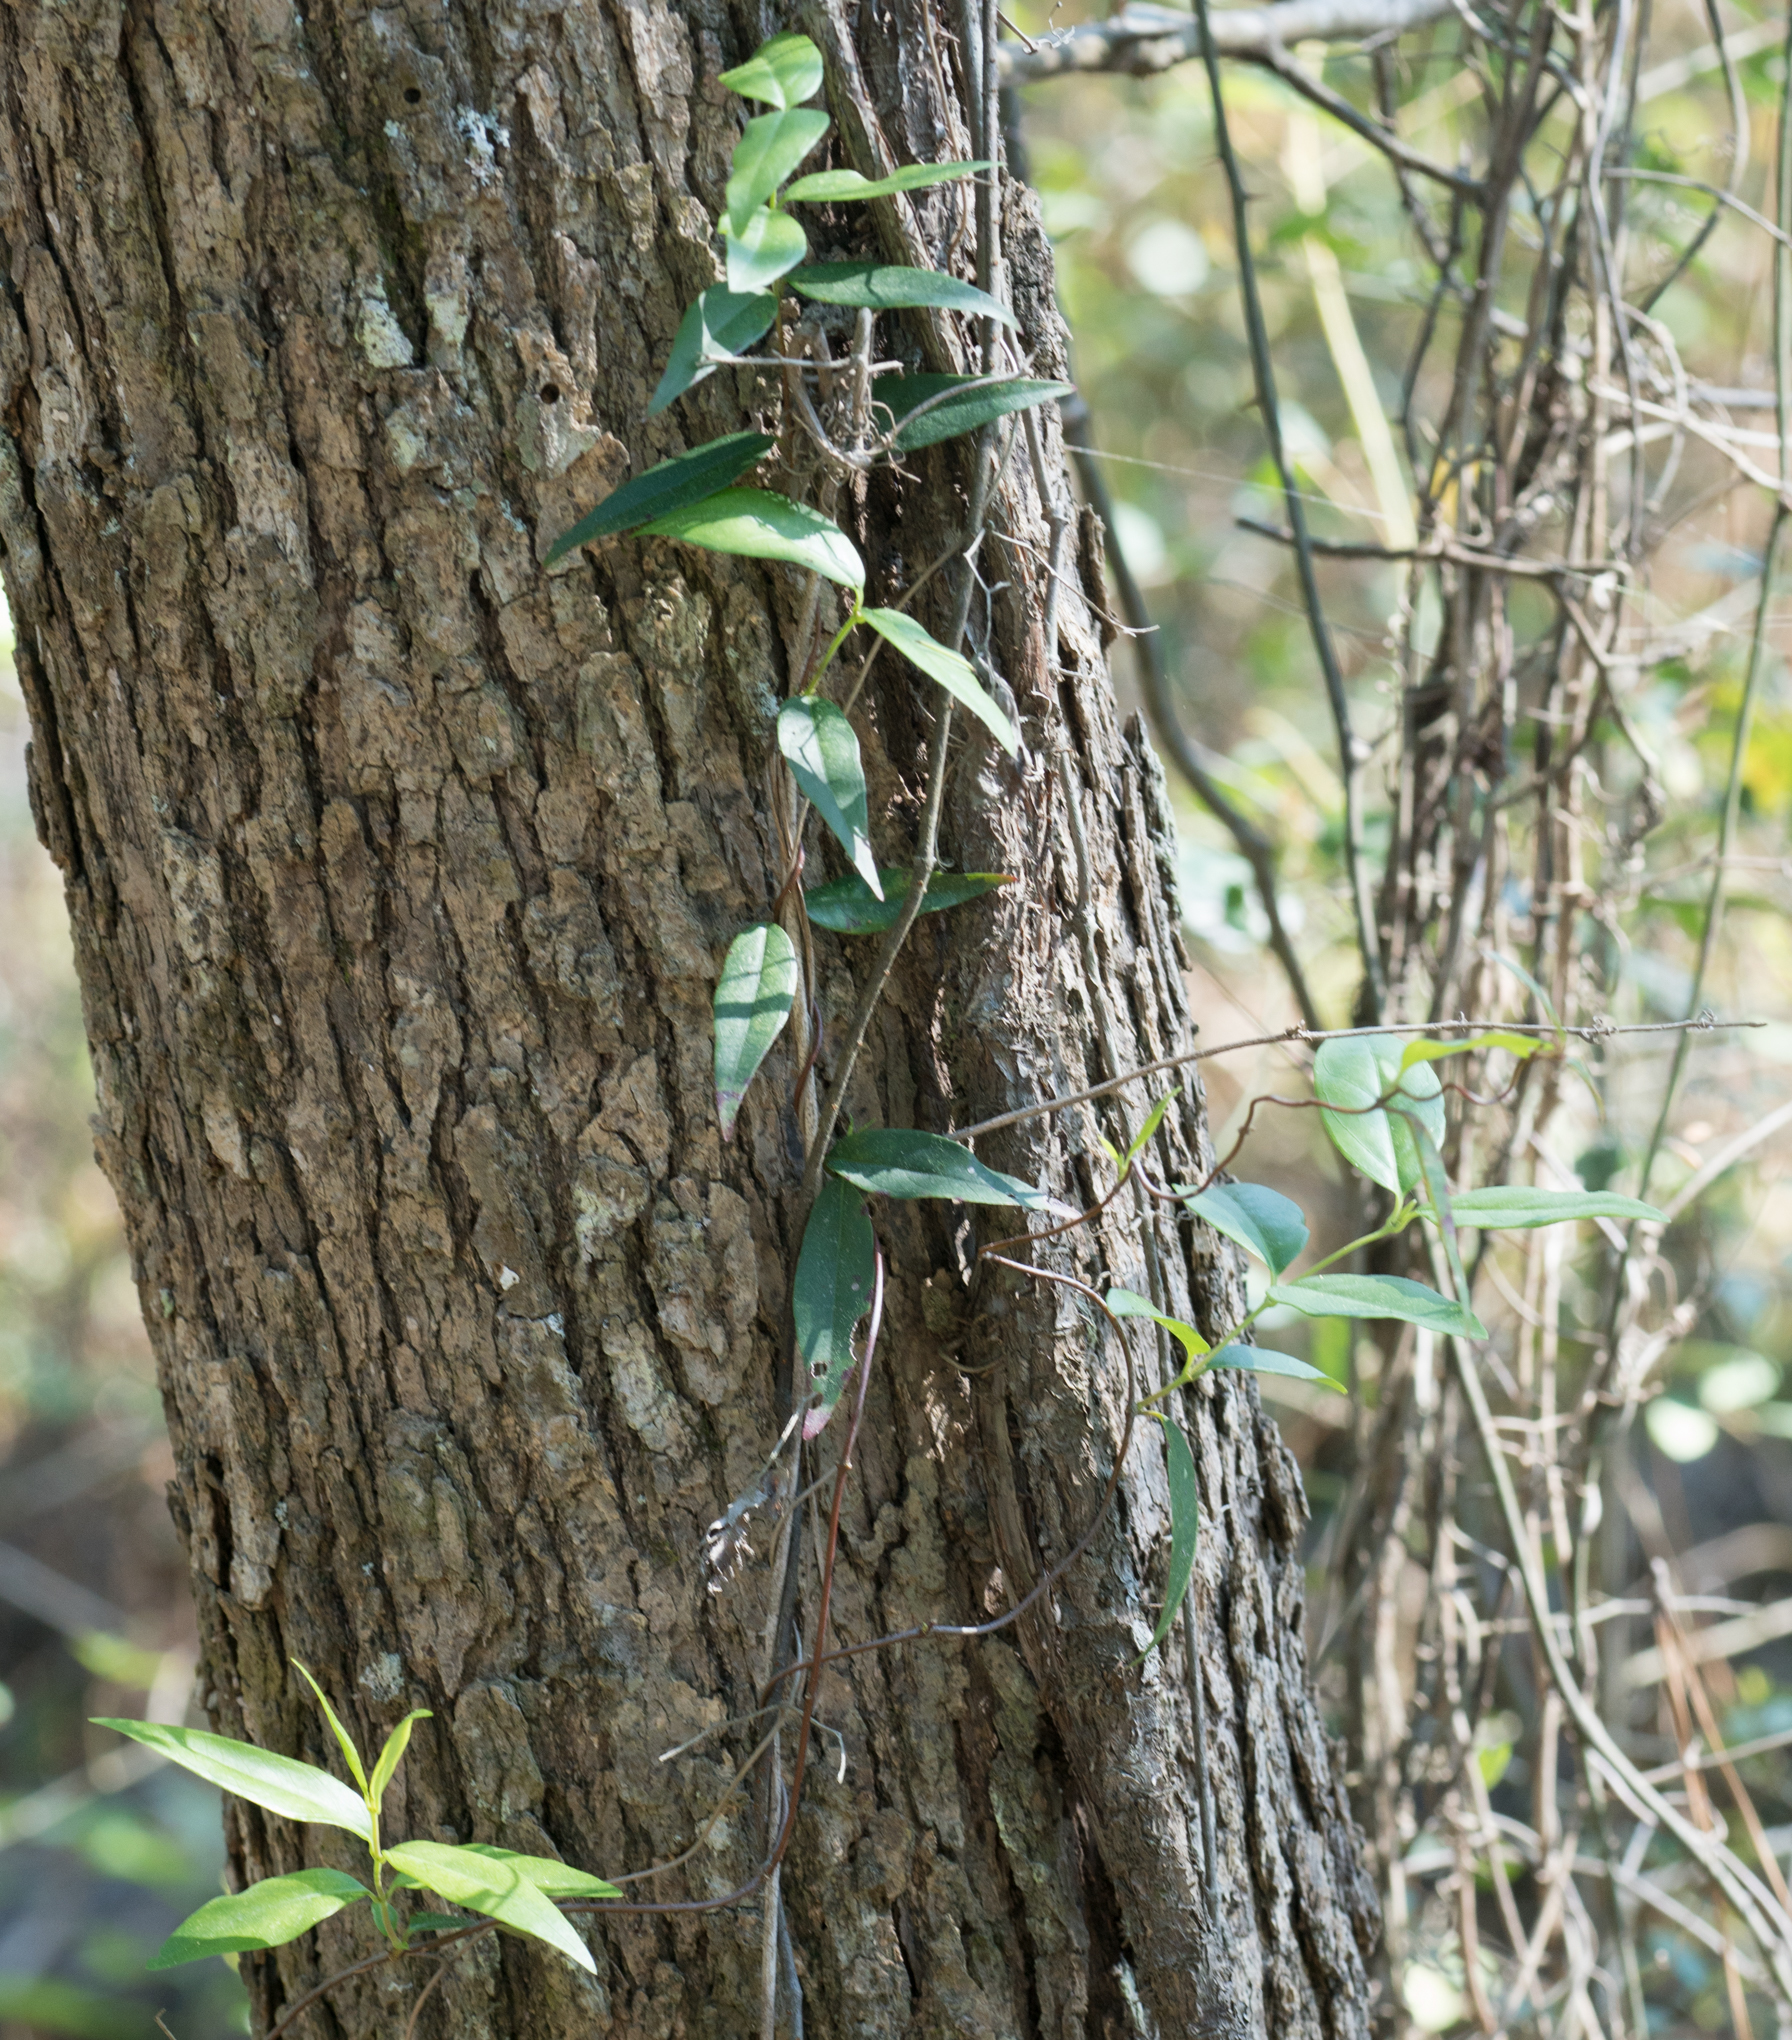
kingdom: Plantae
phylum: Tracheophyta
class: Magnoliopsida
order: Gentianales
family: Gelsemiaceae
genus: Gelsemium
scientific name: Gelsemium sempervirens
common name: Carolina-jasmine
